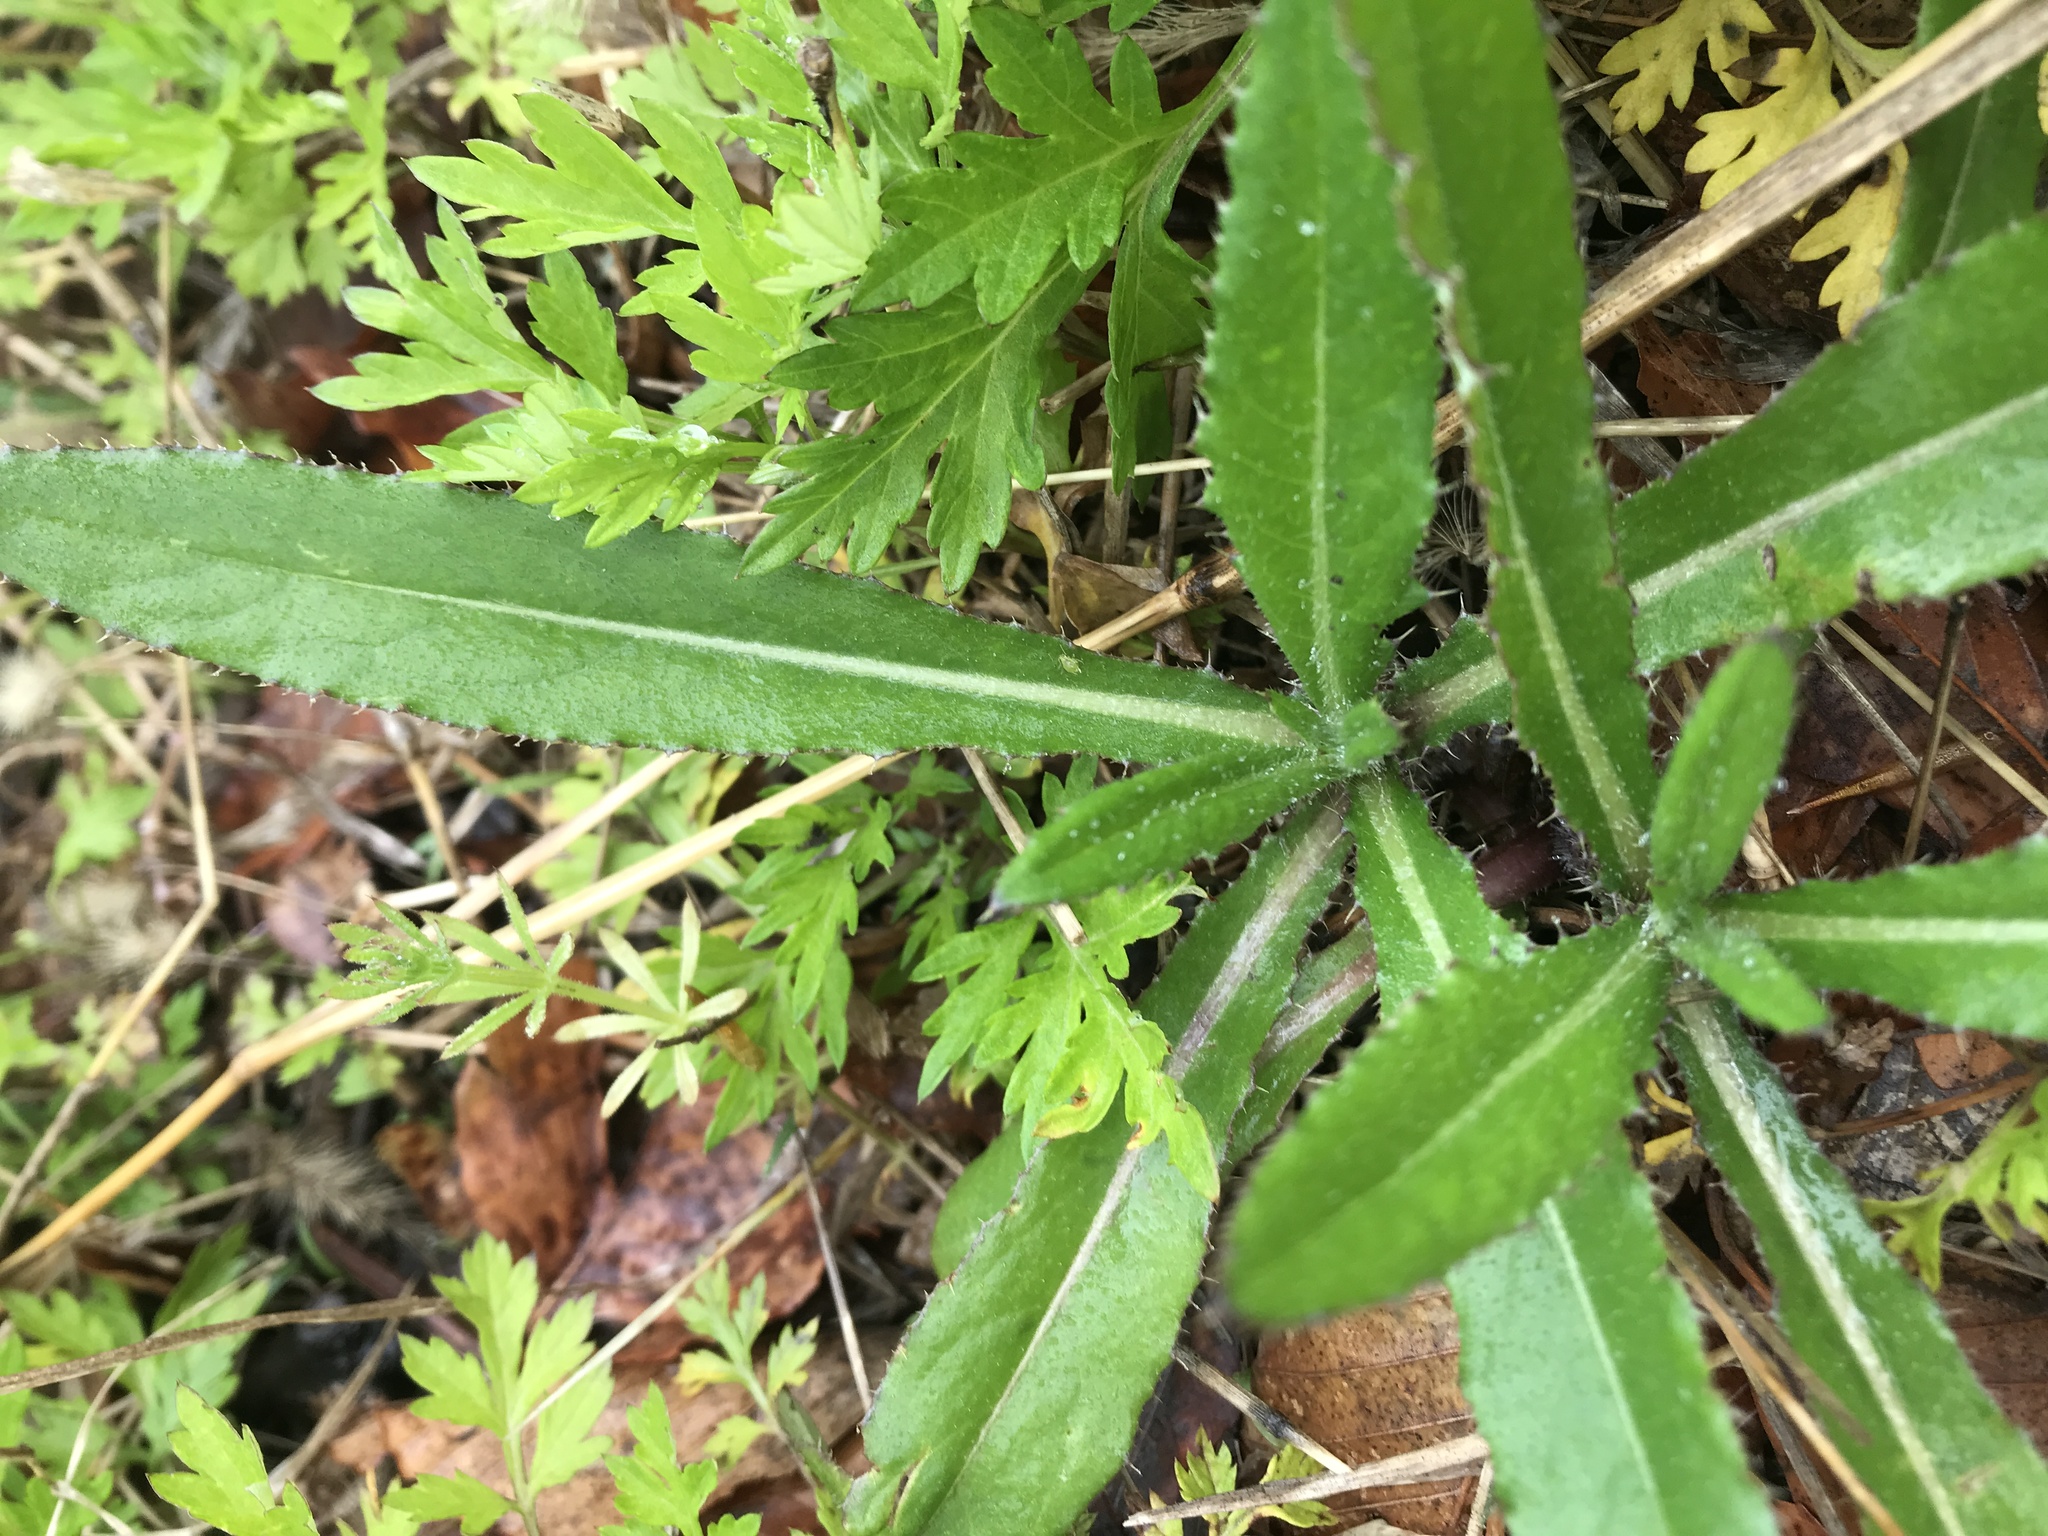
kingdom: Plantae
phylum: Tracheophyta
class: Magnoliopsida
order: Asterales
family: Asteraceae
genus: Cirsium
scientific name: Cirsium arvense
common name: Creeping thistle
